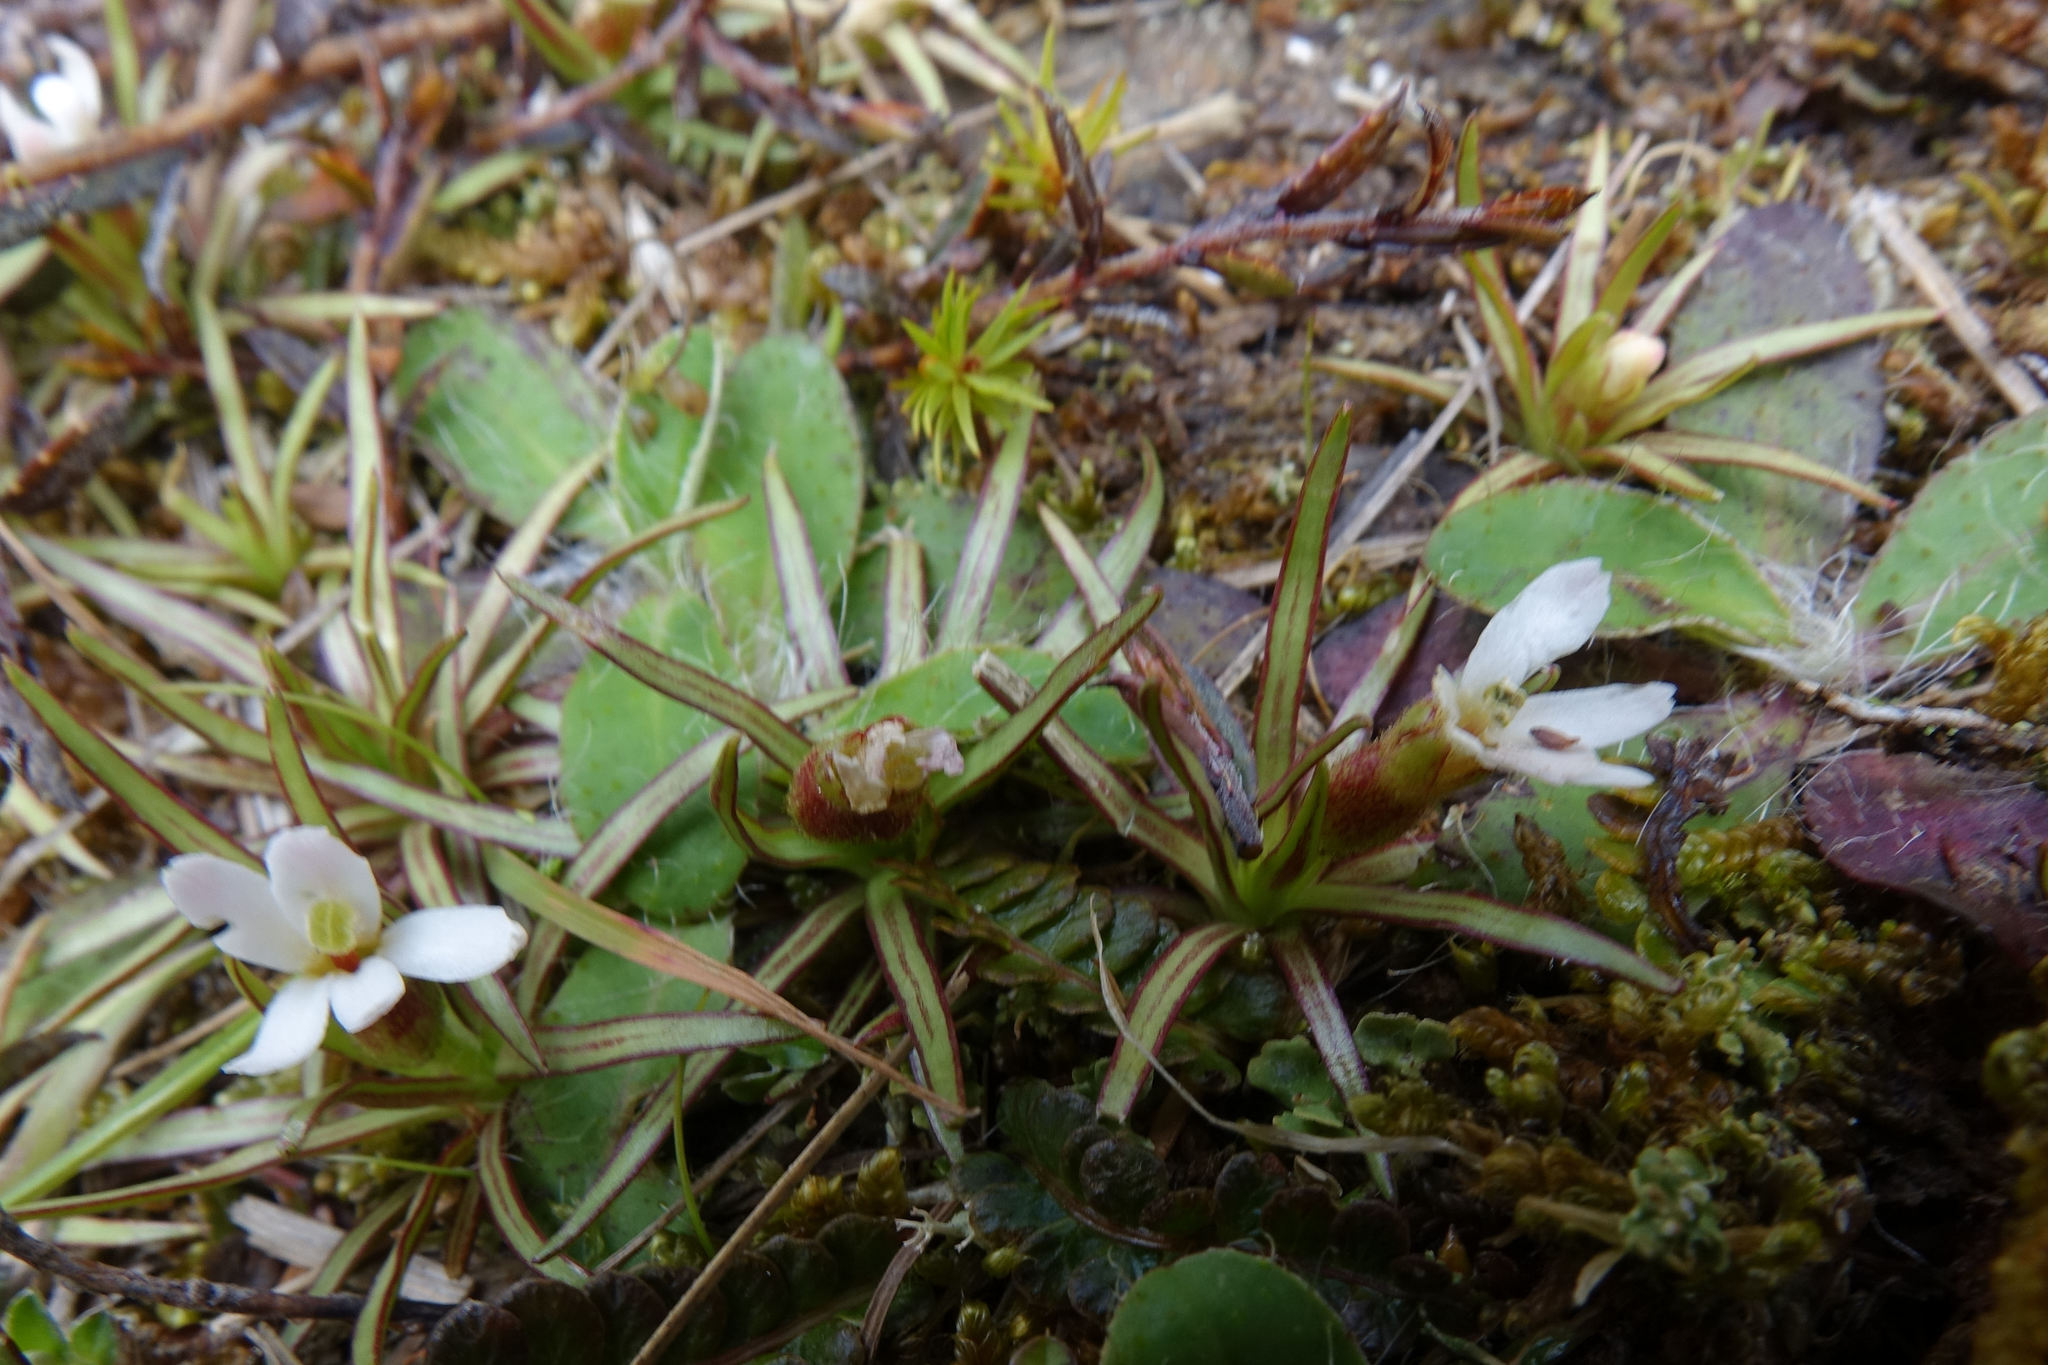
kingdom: Plantae
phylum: Tracheophyta
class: Magnoliopsida
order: Asterales
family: Stylidiaceae
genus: Oreostylidium
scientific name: Oreostylidium subulatum
